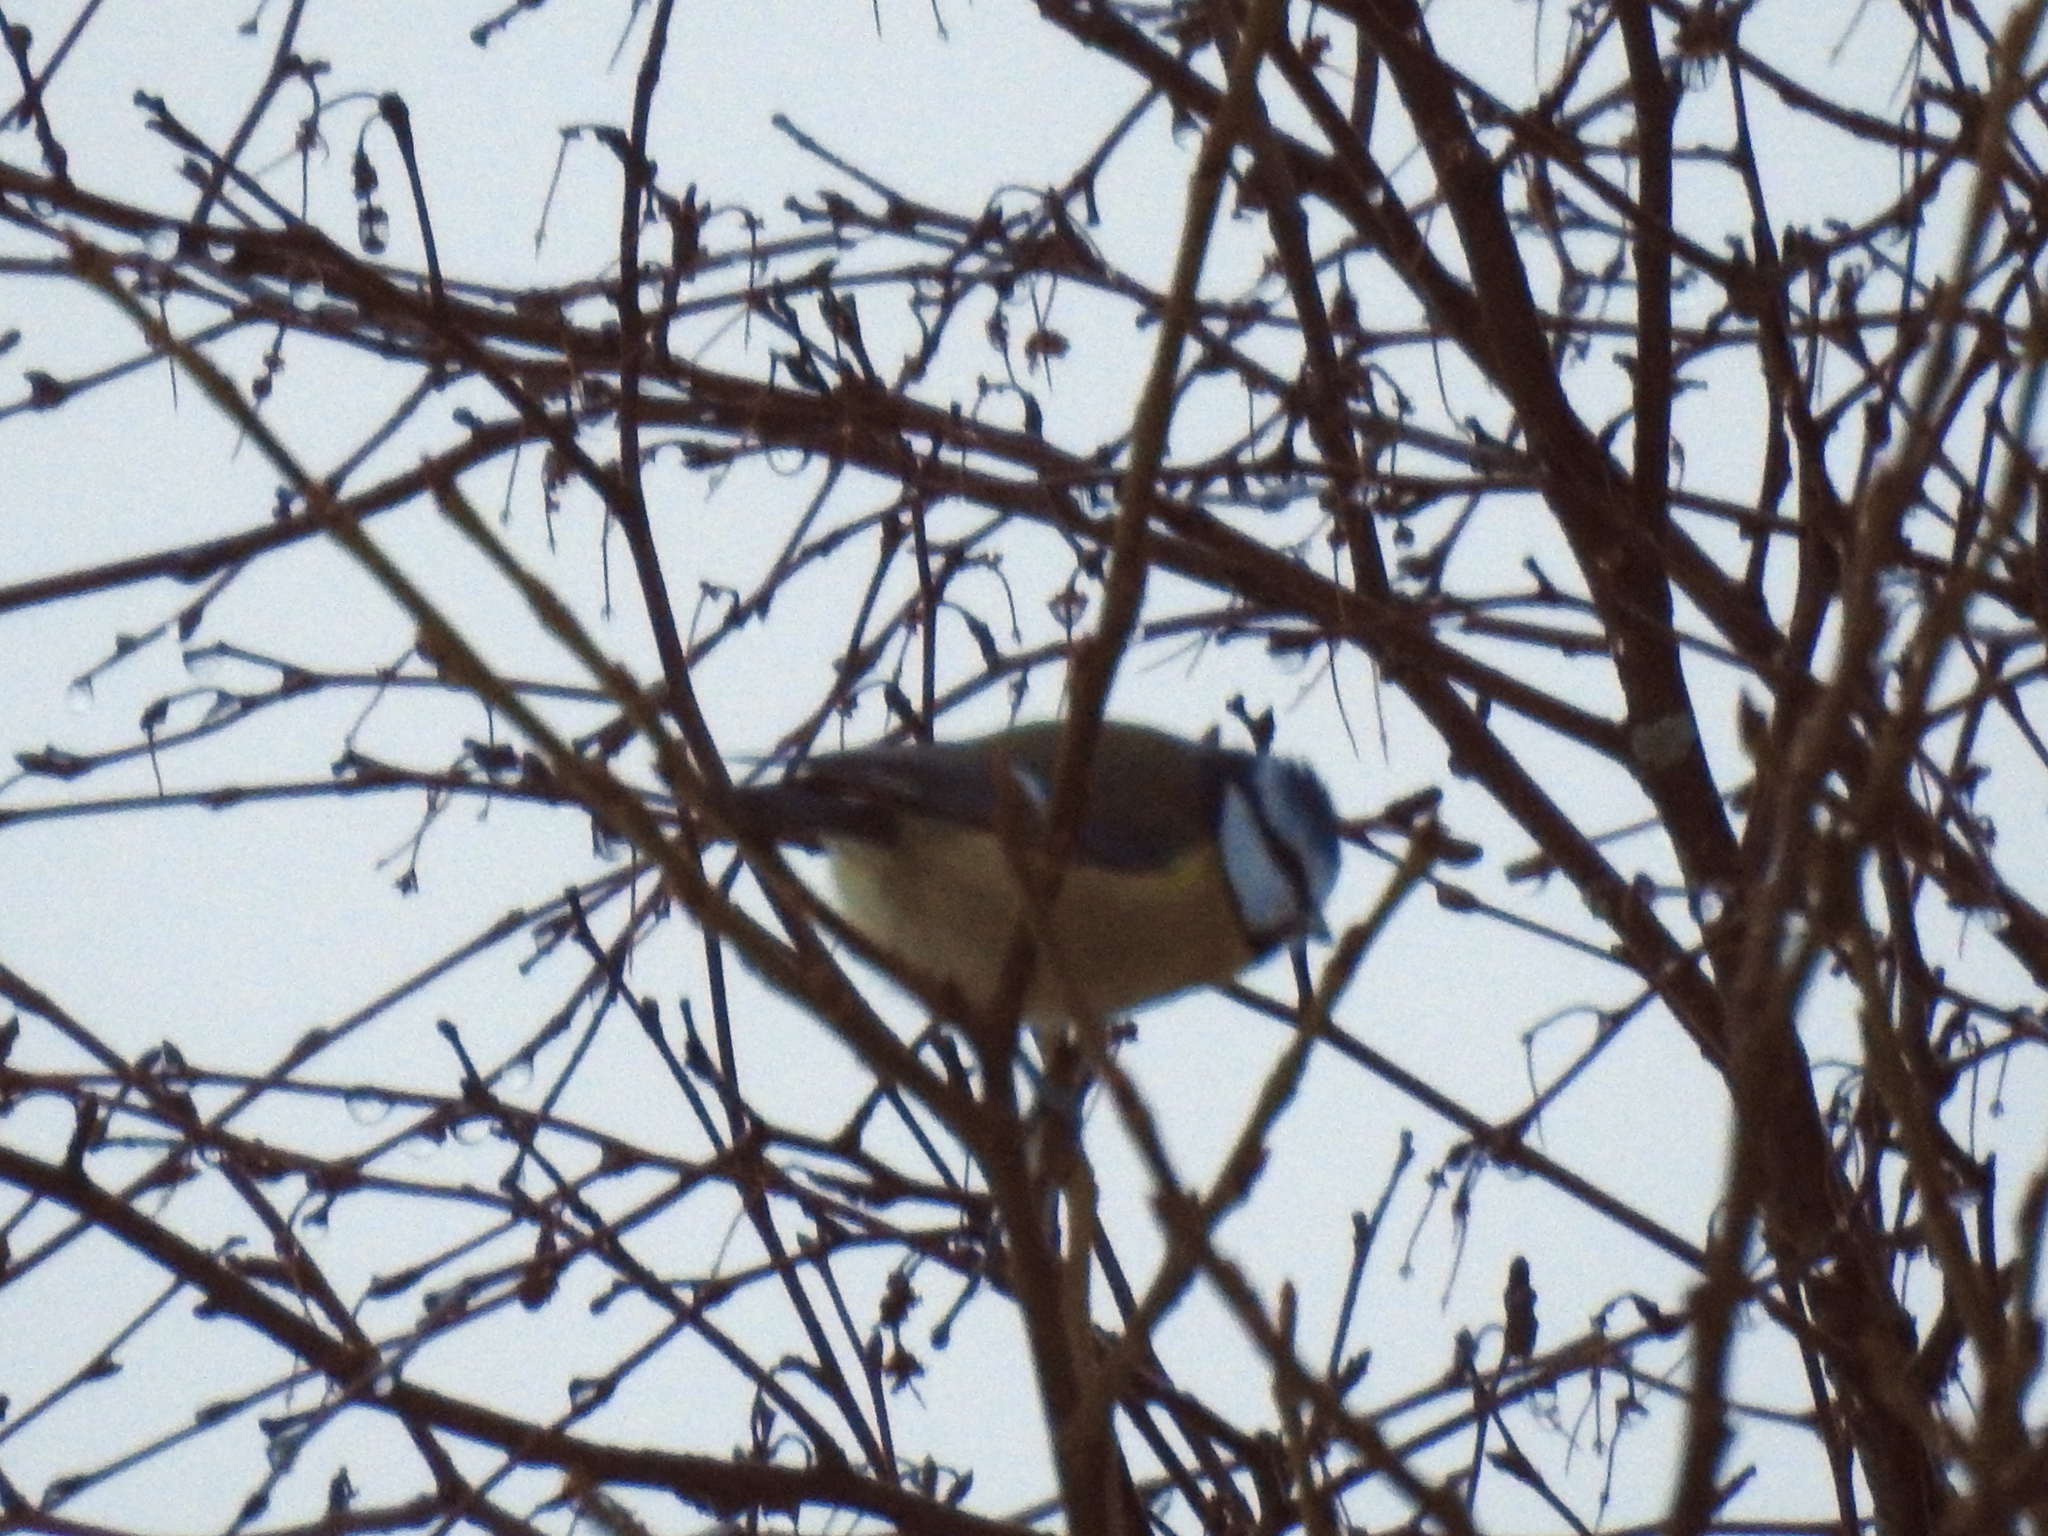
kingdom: Animalia
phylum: Chordata
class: Aves
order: Passeriformes
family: Paridae
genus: Cyanistes
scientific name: Cyanistes caeruleus
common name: Eurasian blue tit
